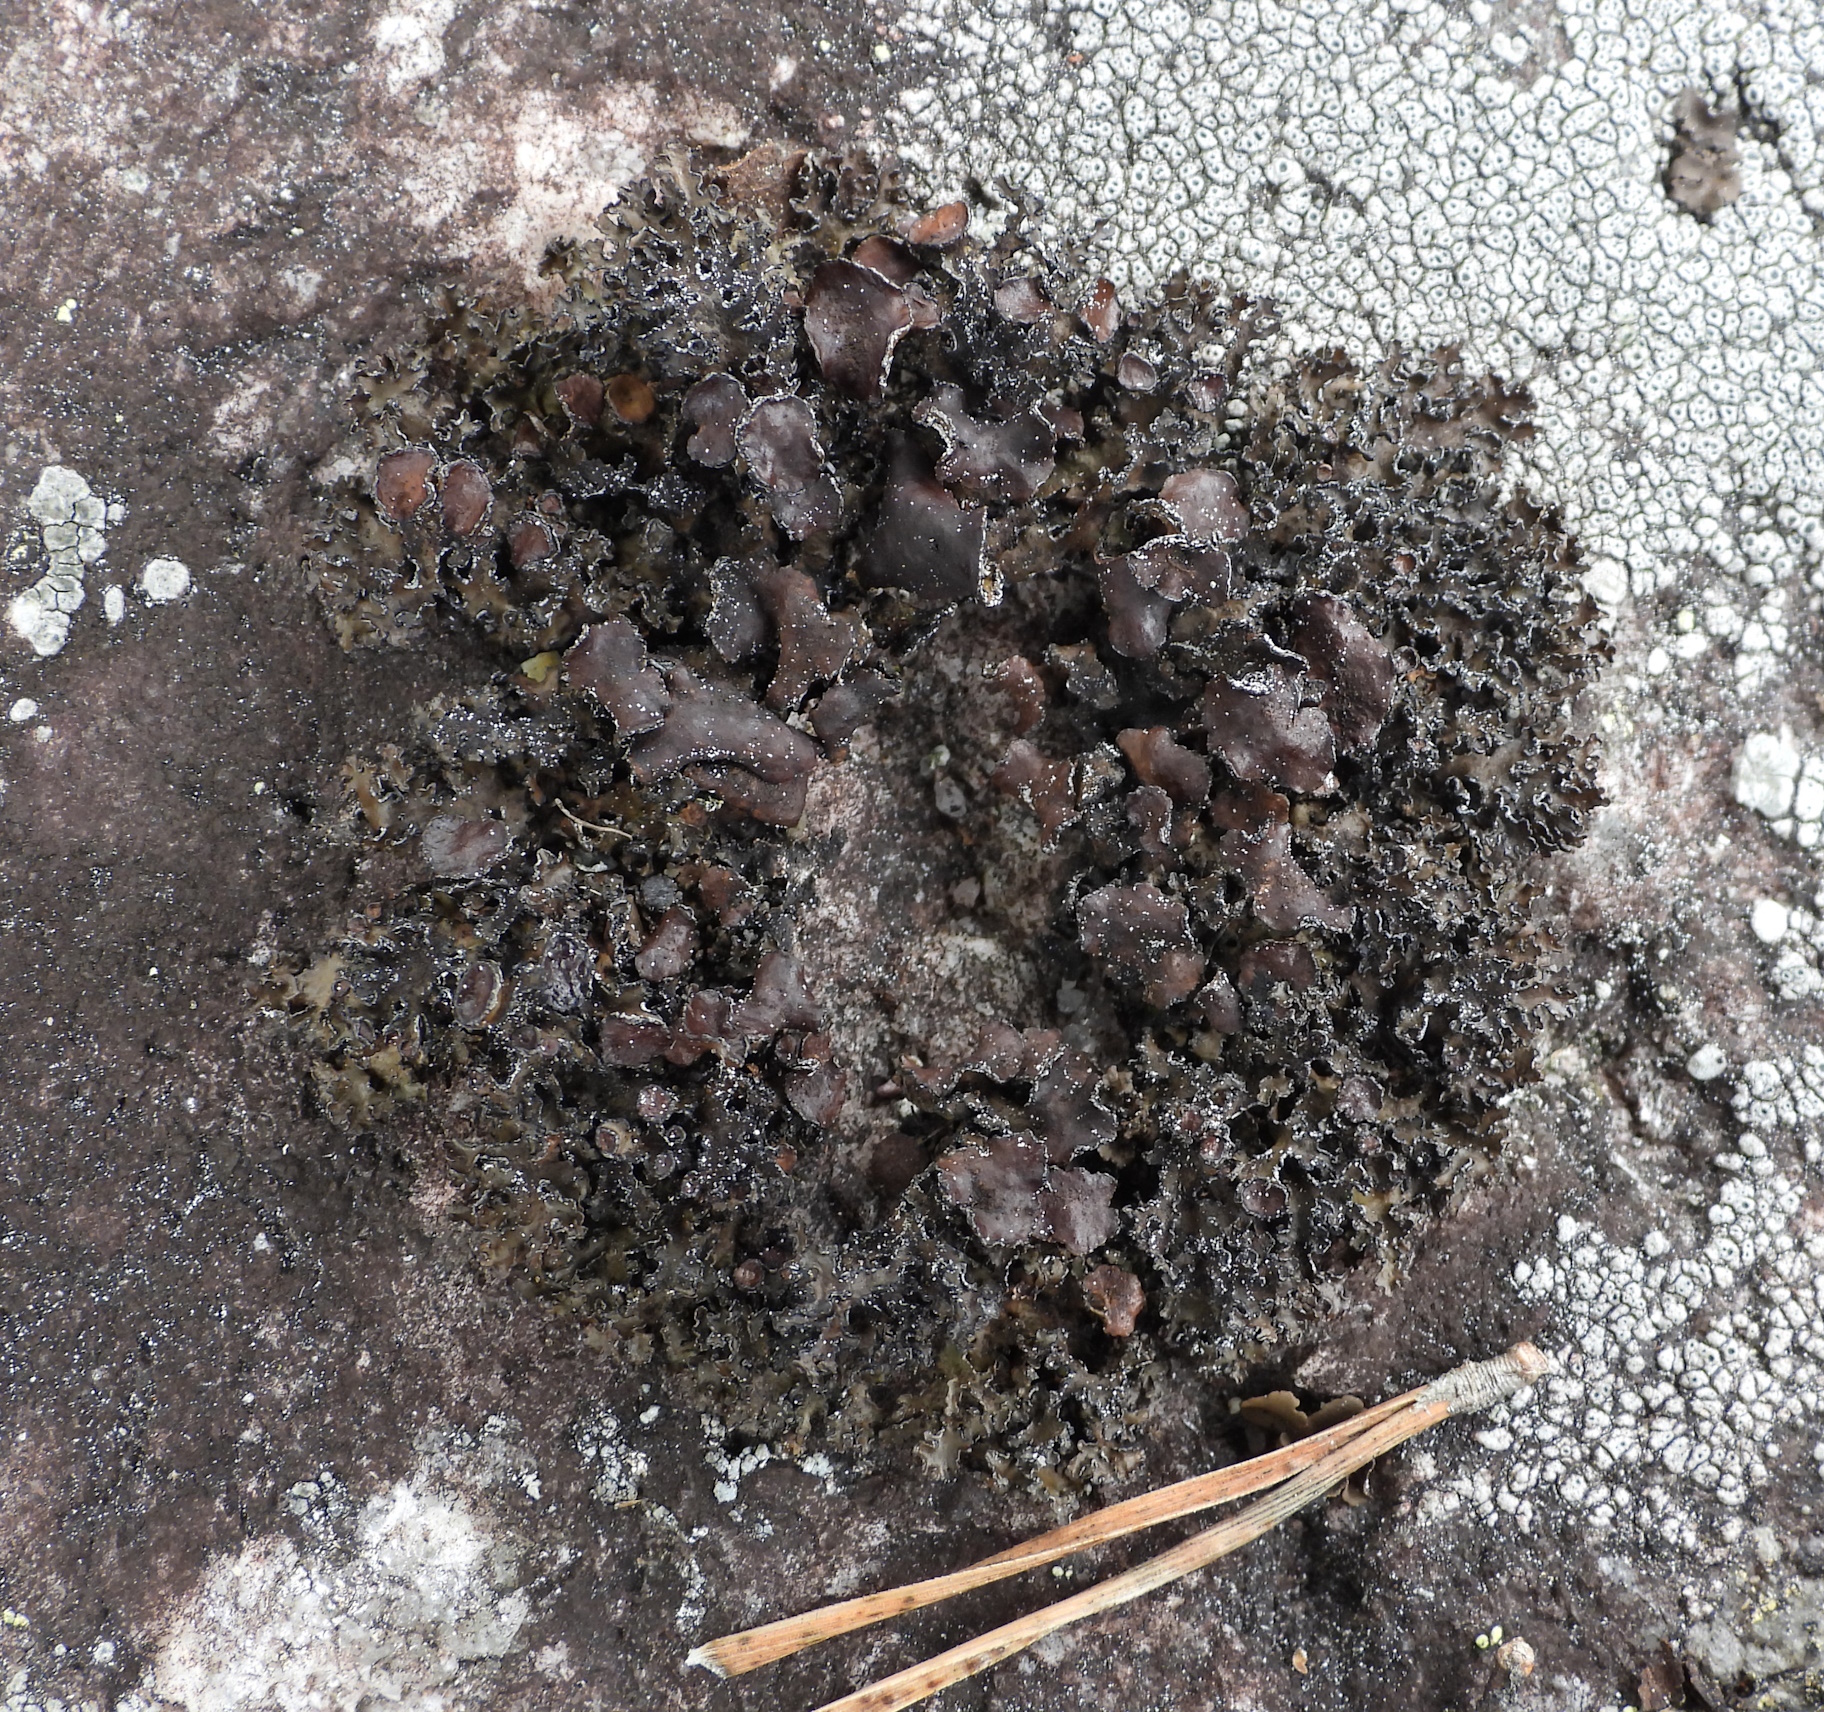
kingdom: Fungi
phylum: Ascomycota
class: Lecanoromycetes
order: Lecanorales
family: Parmeliaceae
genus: Melanelia
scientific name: Melanelia commixta
